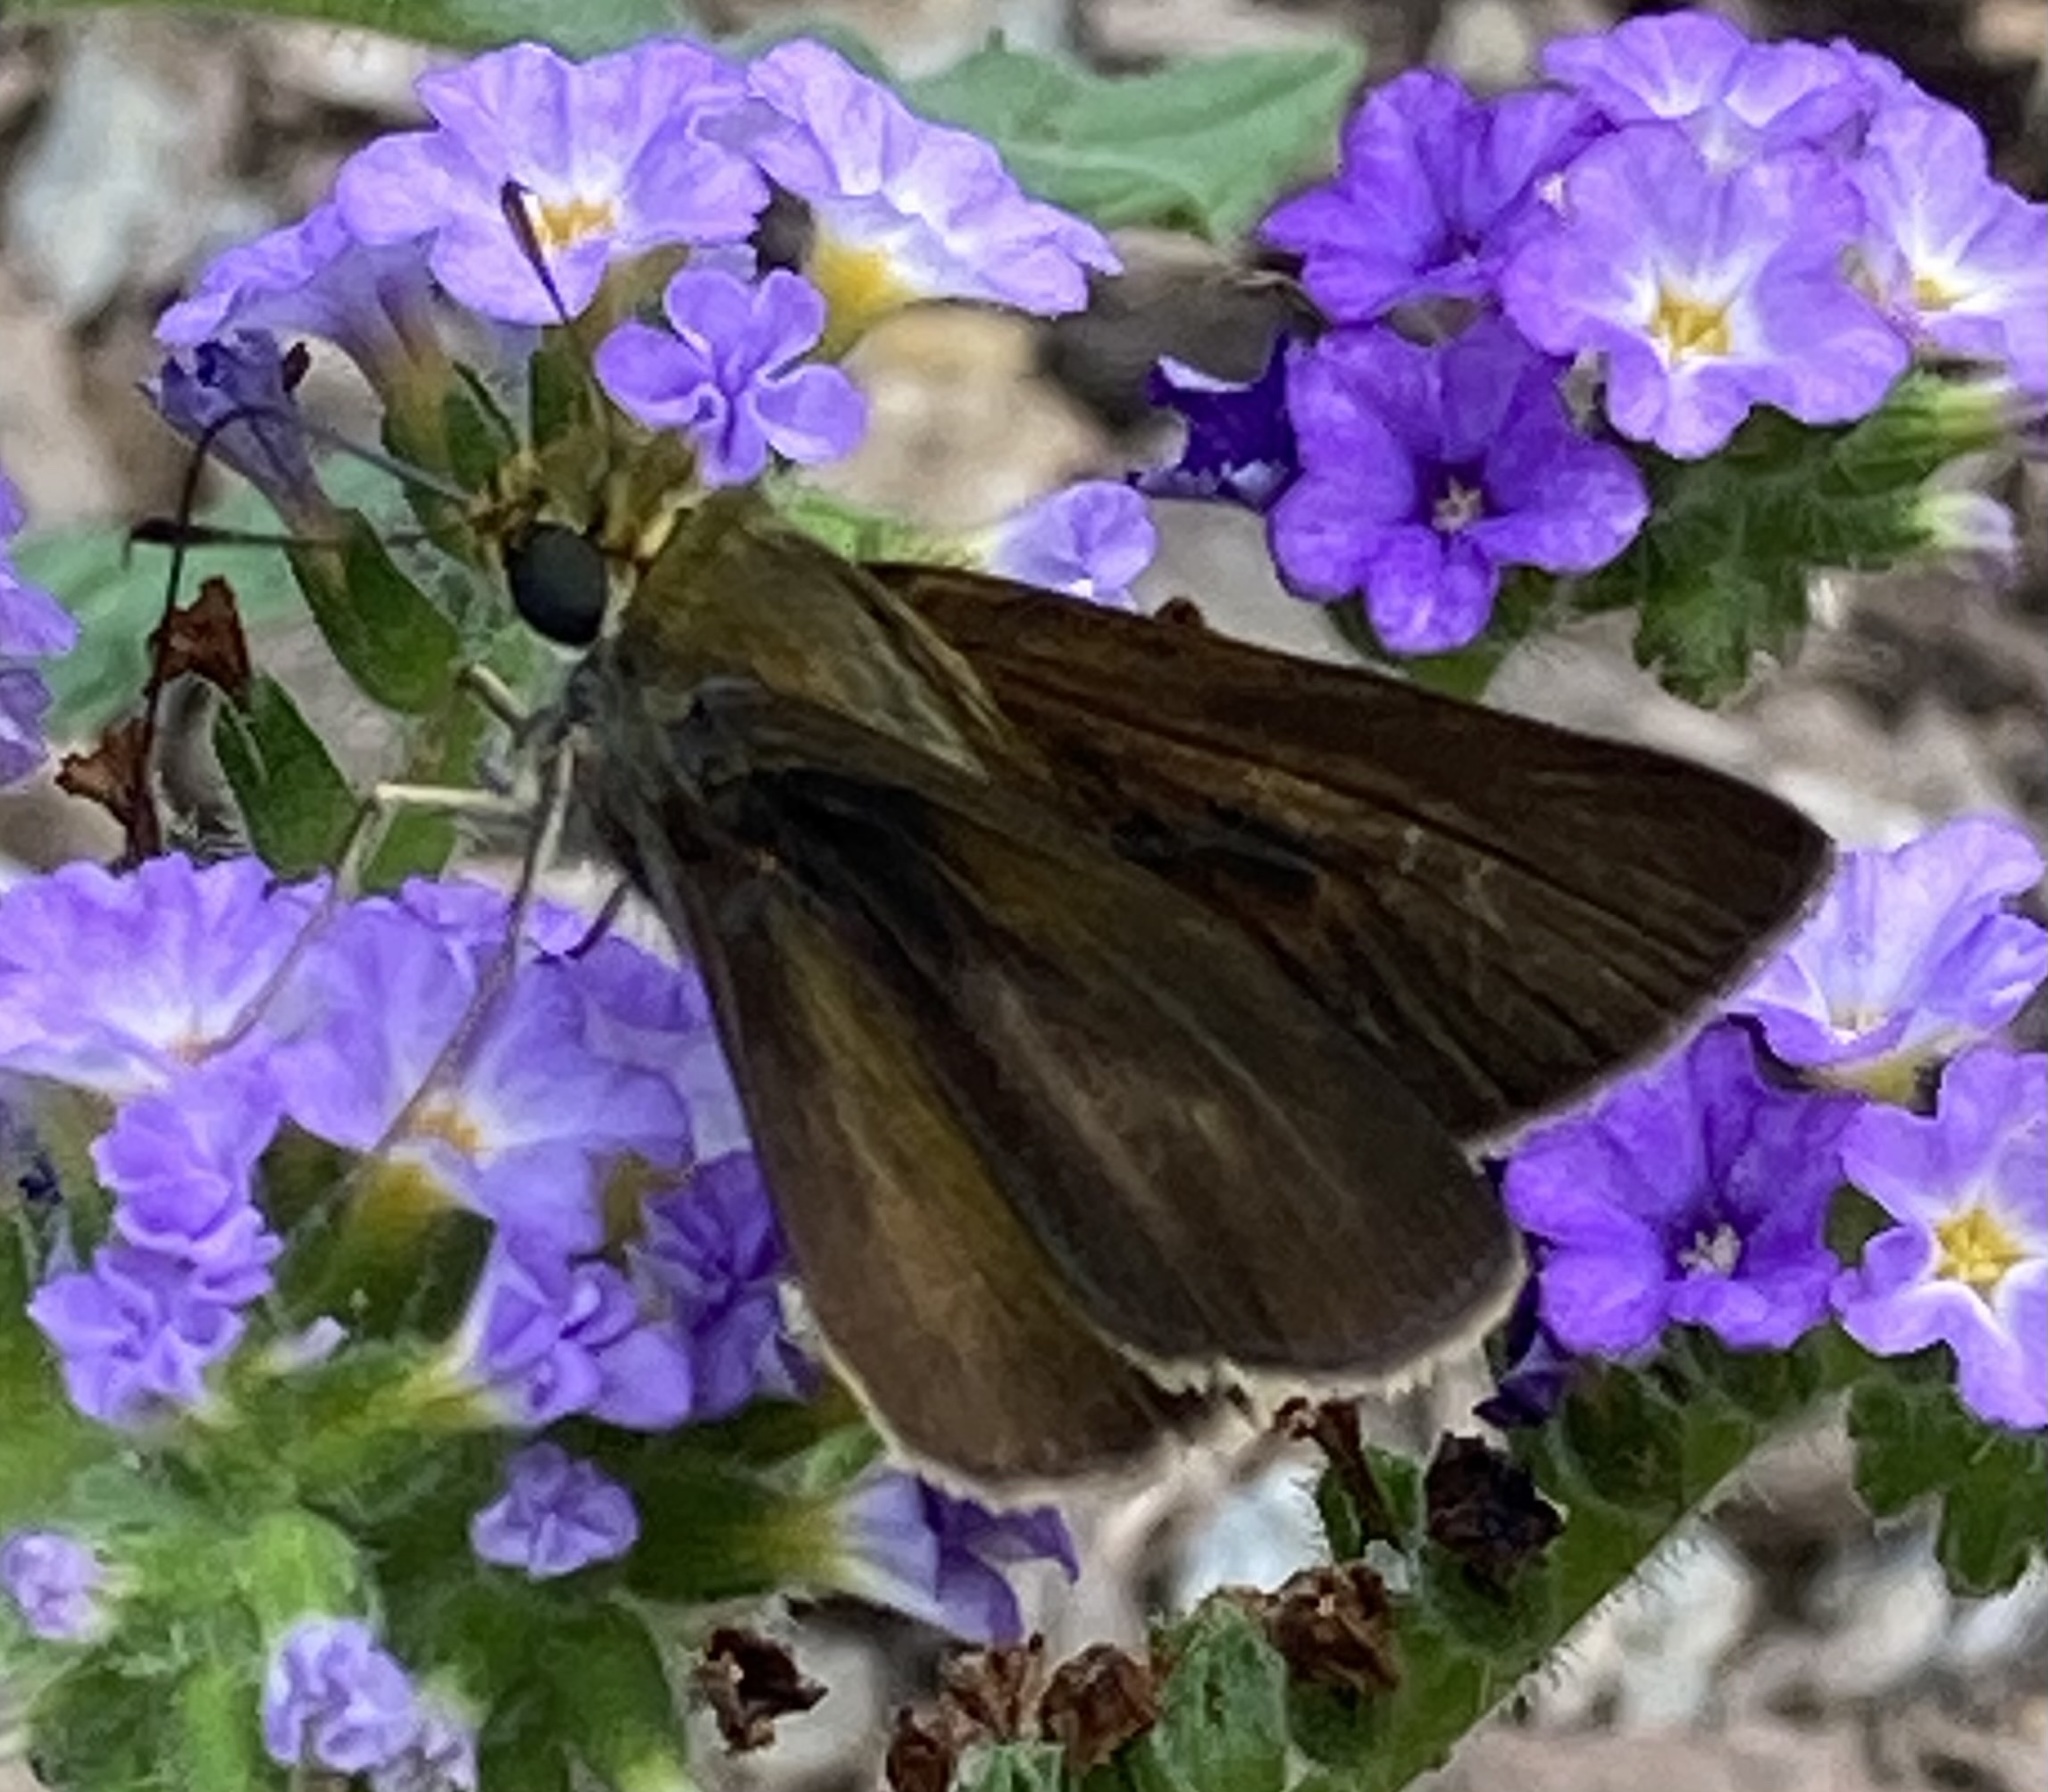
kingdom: Animalia
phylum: Arthropoda
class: Insecta
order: Lepidoptera
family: Hesperiidae
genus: Euphyes
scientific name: Euphyes vestris
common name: Dun skipper
